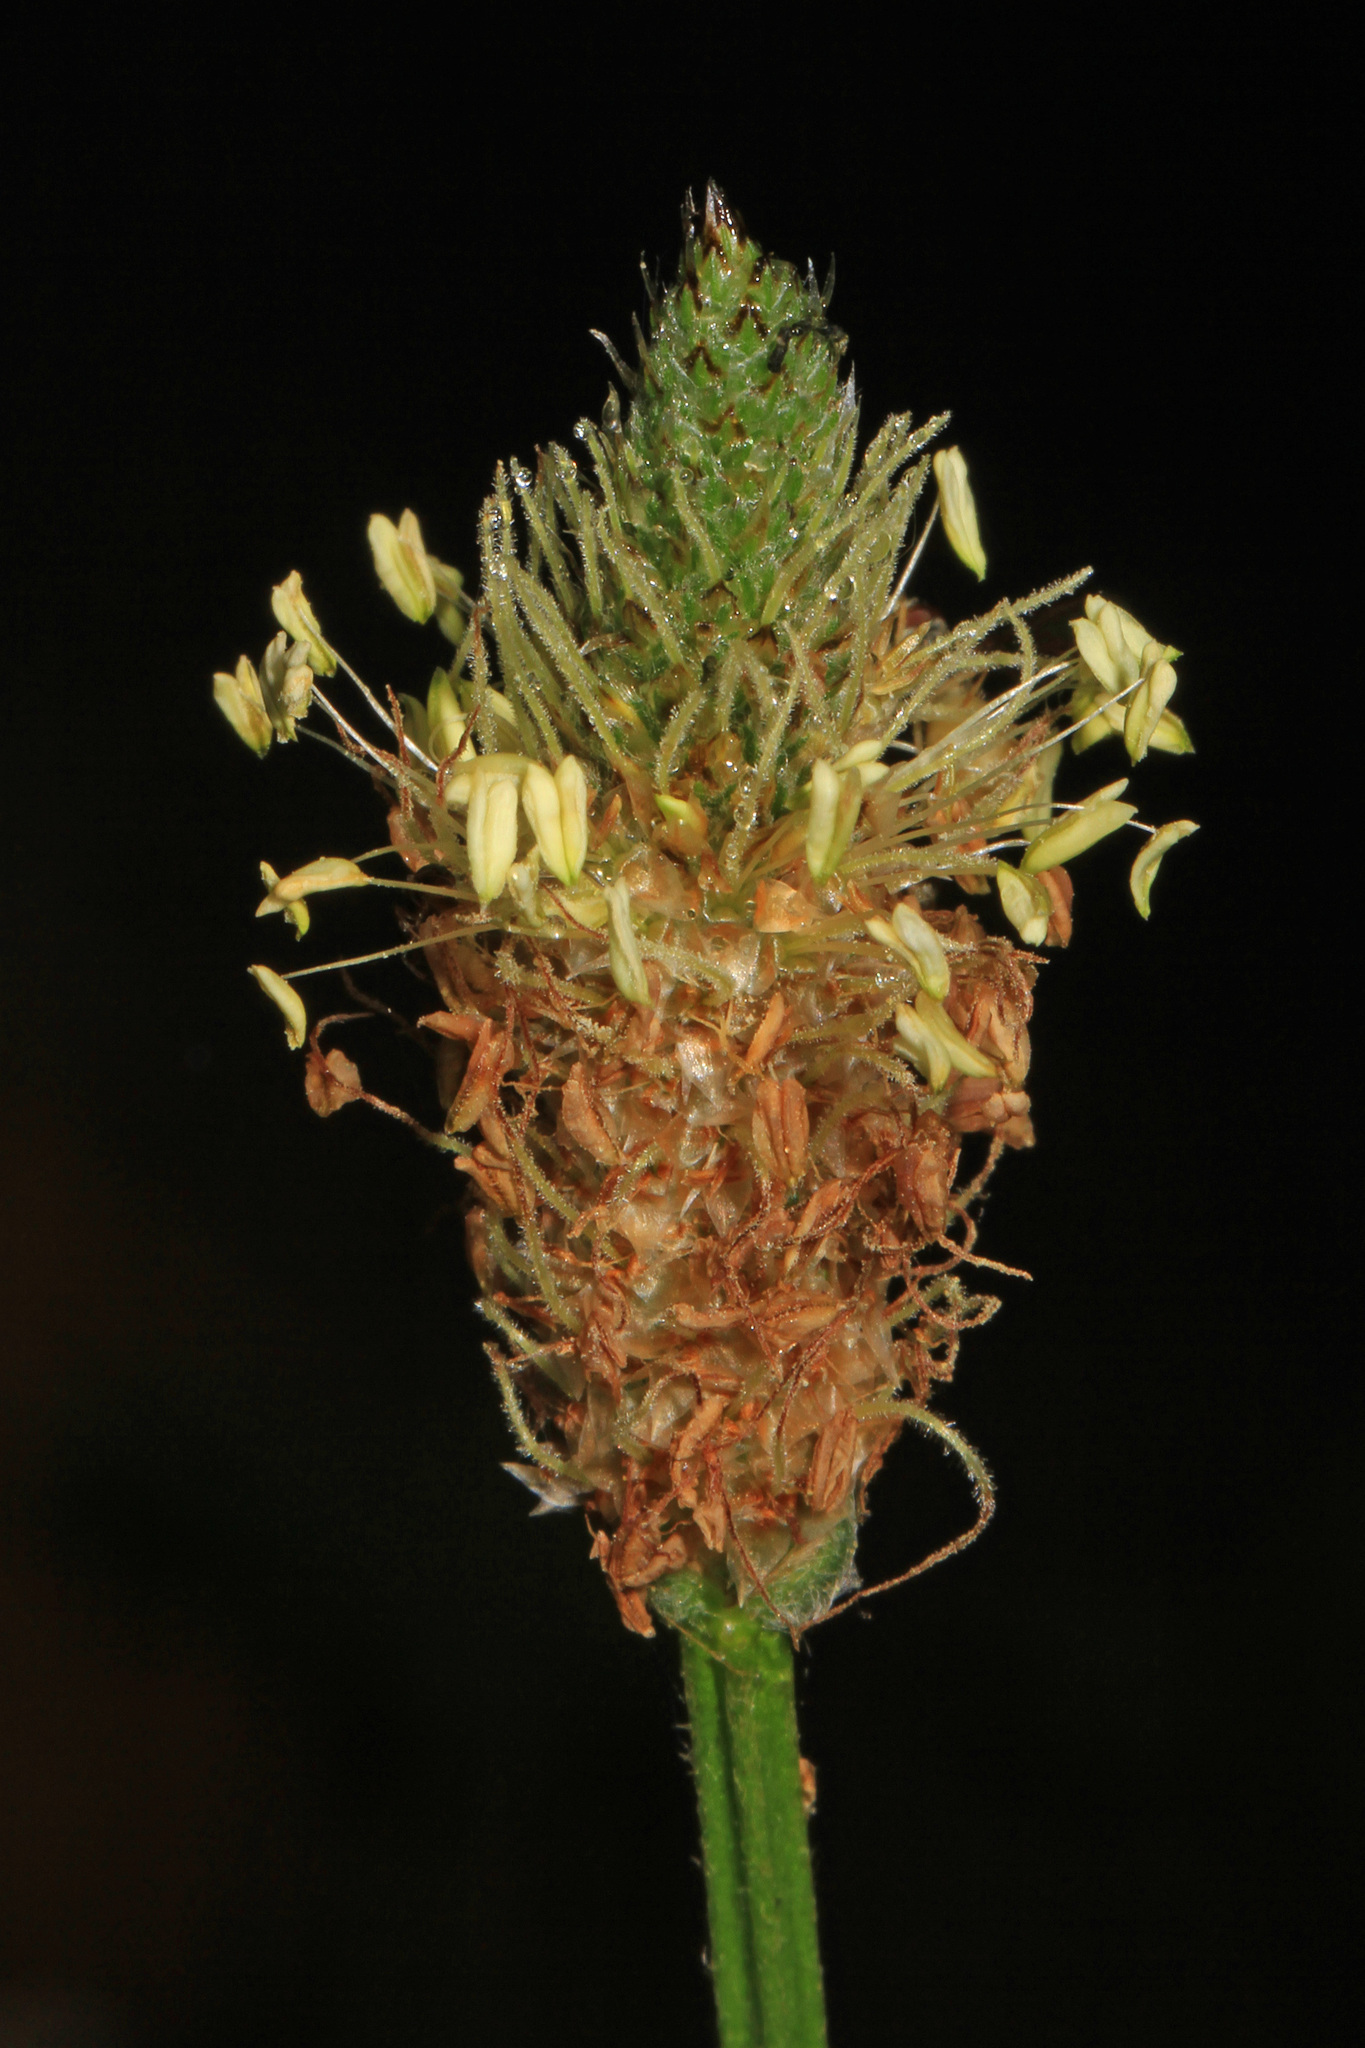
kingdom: Plantae
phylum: Tracheophyta
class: Magnoliopsida
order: Lamiales
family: Plantaginaceae
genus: Plantago
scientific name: Plantago lanceolata
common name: Ribwort plantain
